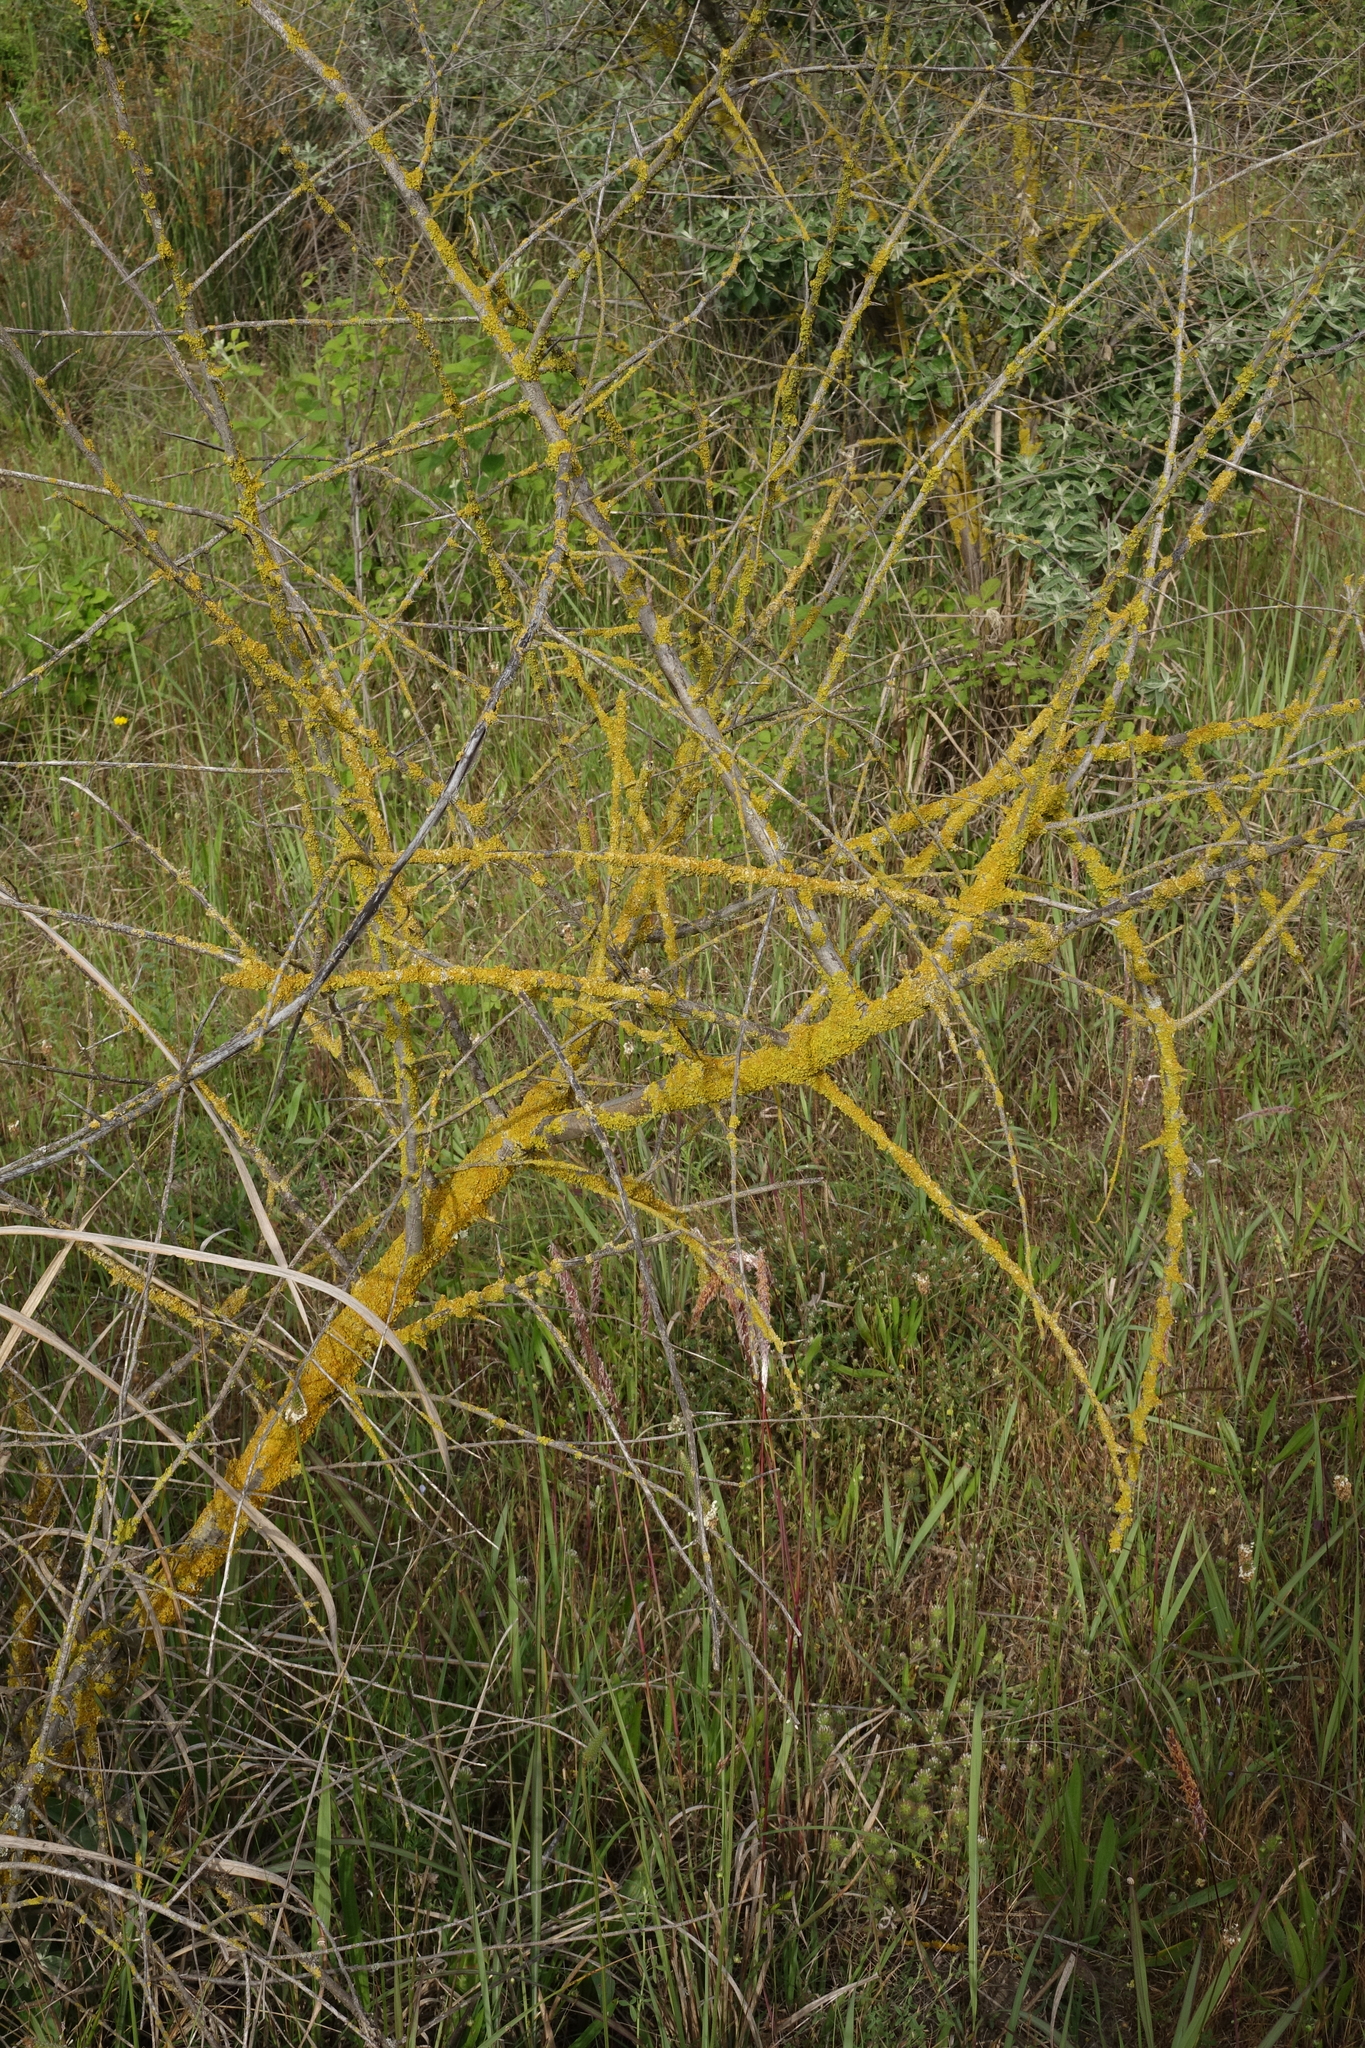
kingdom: Fungi
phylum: Ascomycota
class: Lecanoromycetes
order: Teloschistales
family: Teloschistaceae
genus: Xanthoria
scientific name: Xanthoria parietina
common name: Common orange lichen
